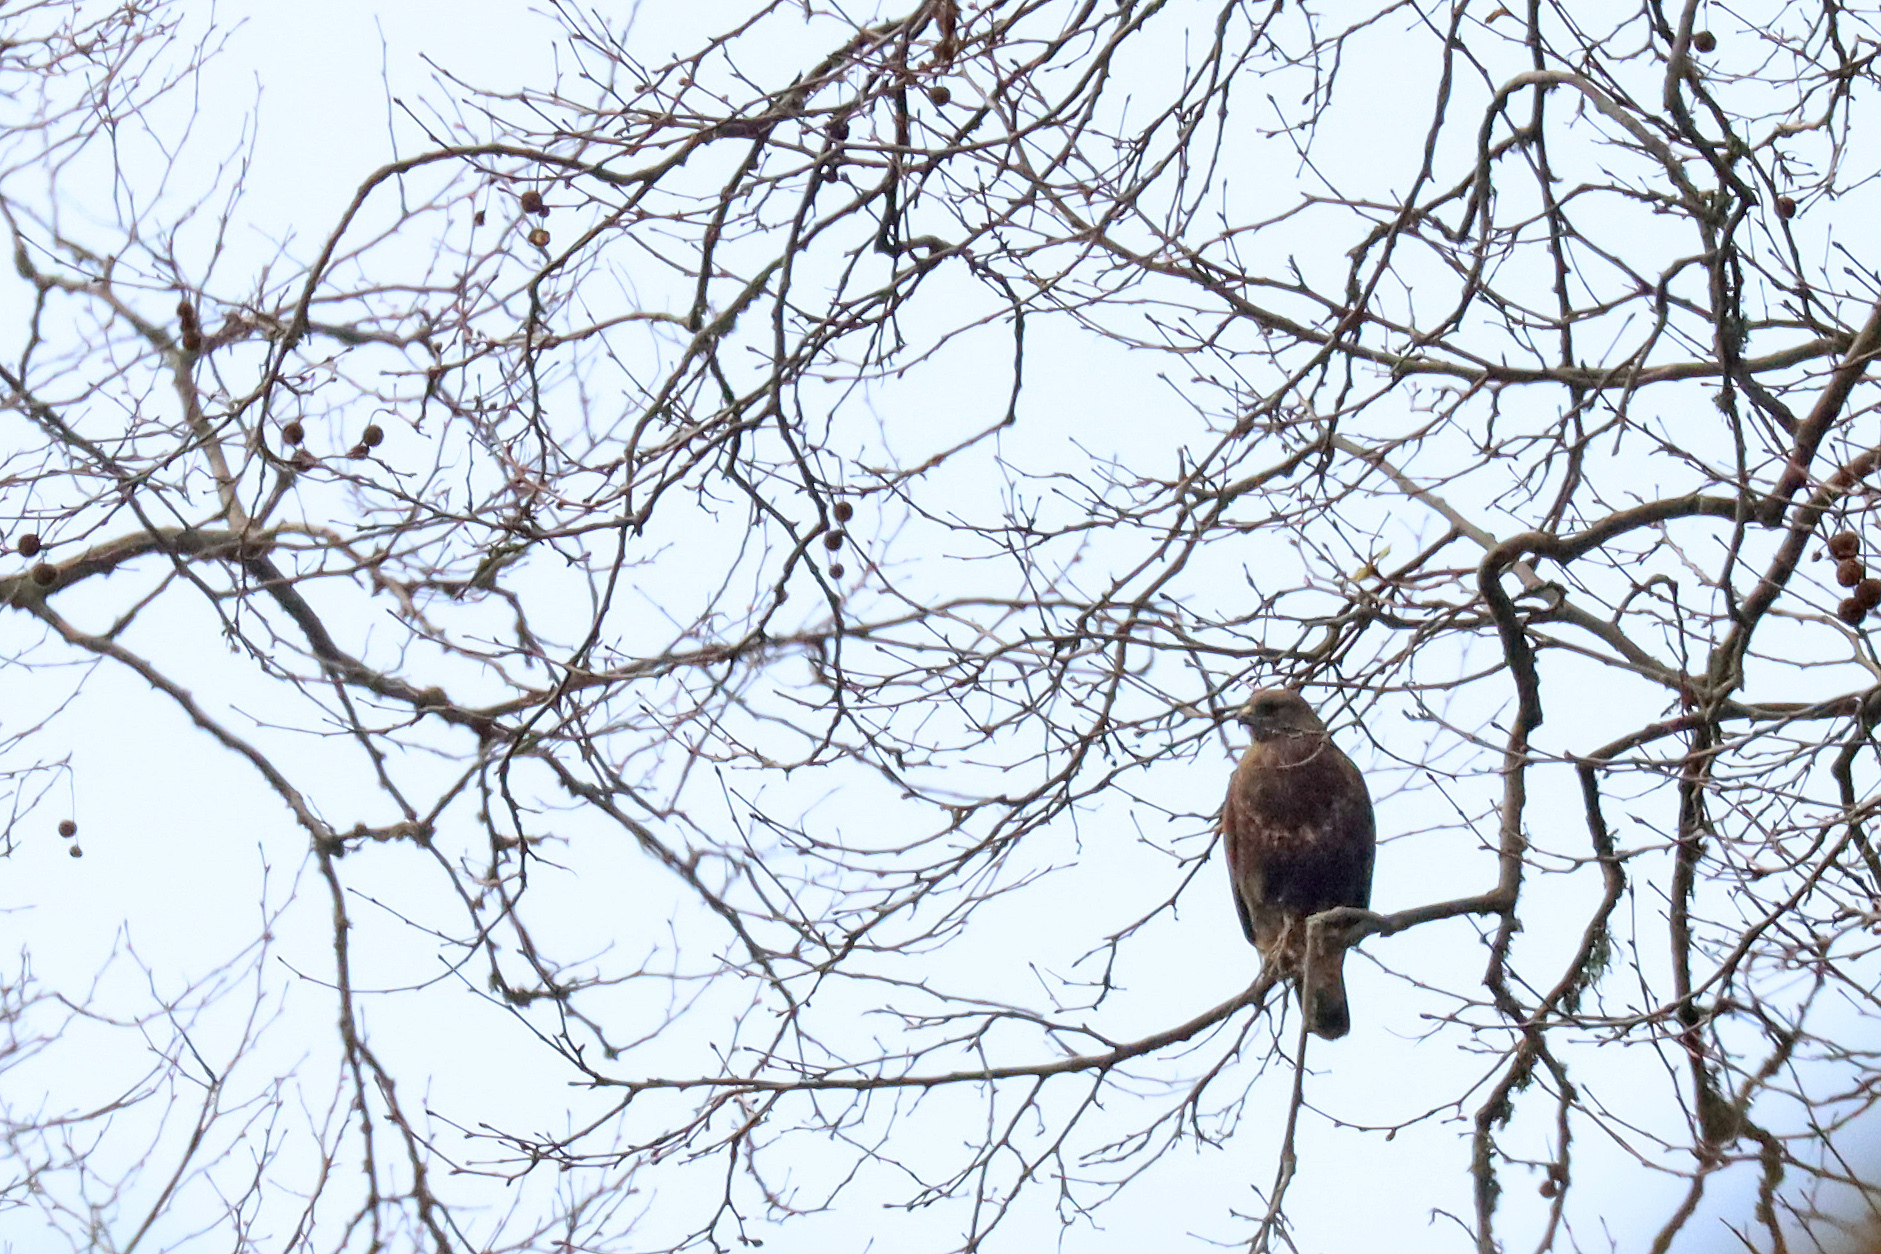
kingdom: Animalia
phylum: Chordata
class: Aves
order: Accipitriformes
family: Accipitridae
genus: Buteo
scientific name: Buteo buteo
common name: Common buzzard
